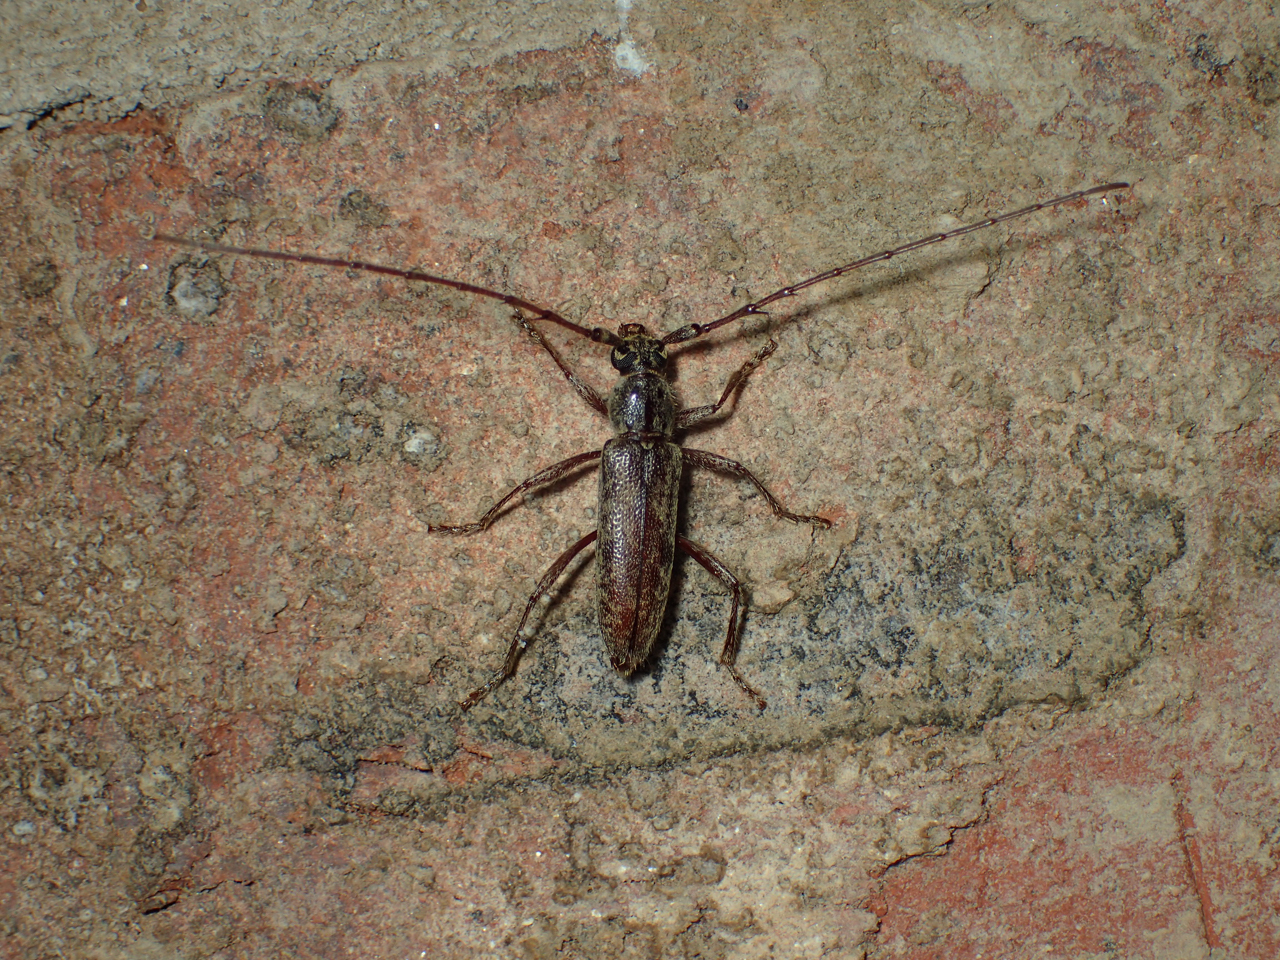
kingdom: Animalia
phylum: Arthropoda
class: Insecta
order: Coleoptera
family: Cerambycidae
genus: Elaphidion
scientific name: Elaphidion mucronatum
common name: Spined oak borer
